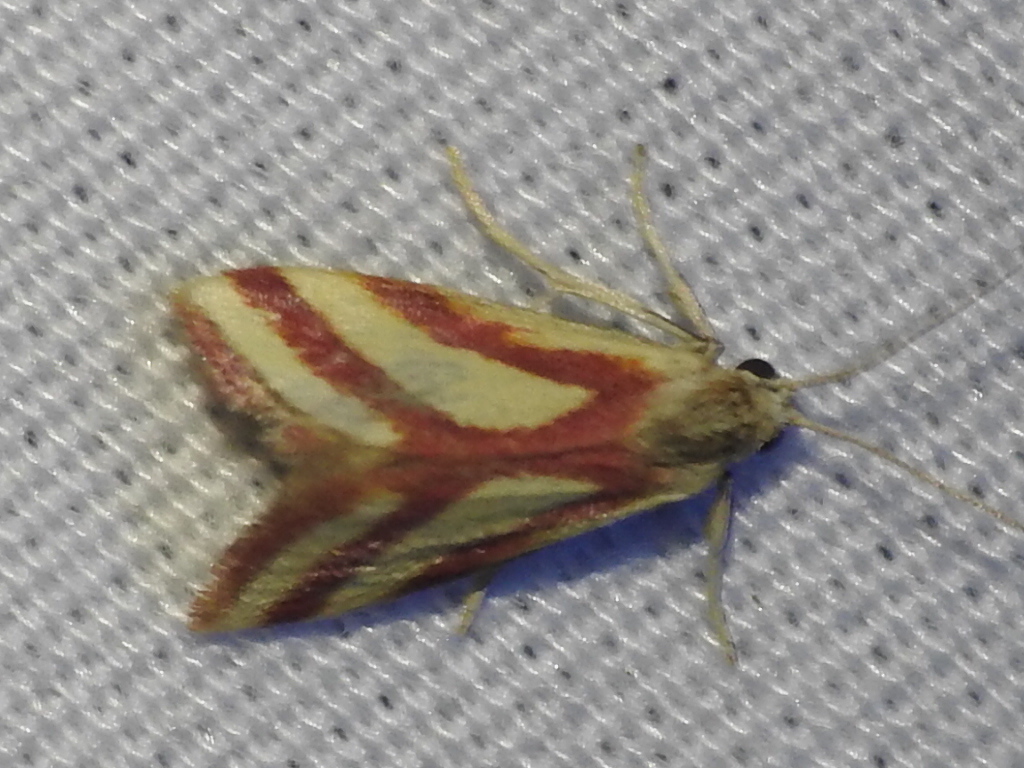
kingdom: Animalia
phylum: Arthropoda
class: Insecta
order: Lepidoptera
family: Crambidae
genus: Microtheoris
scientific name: Microtheoris vibicalis
